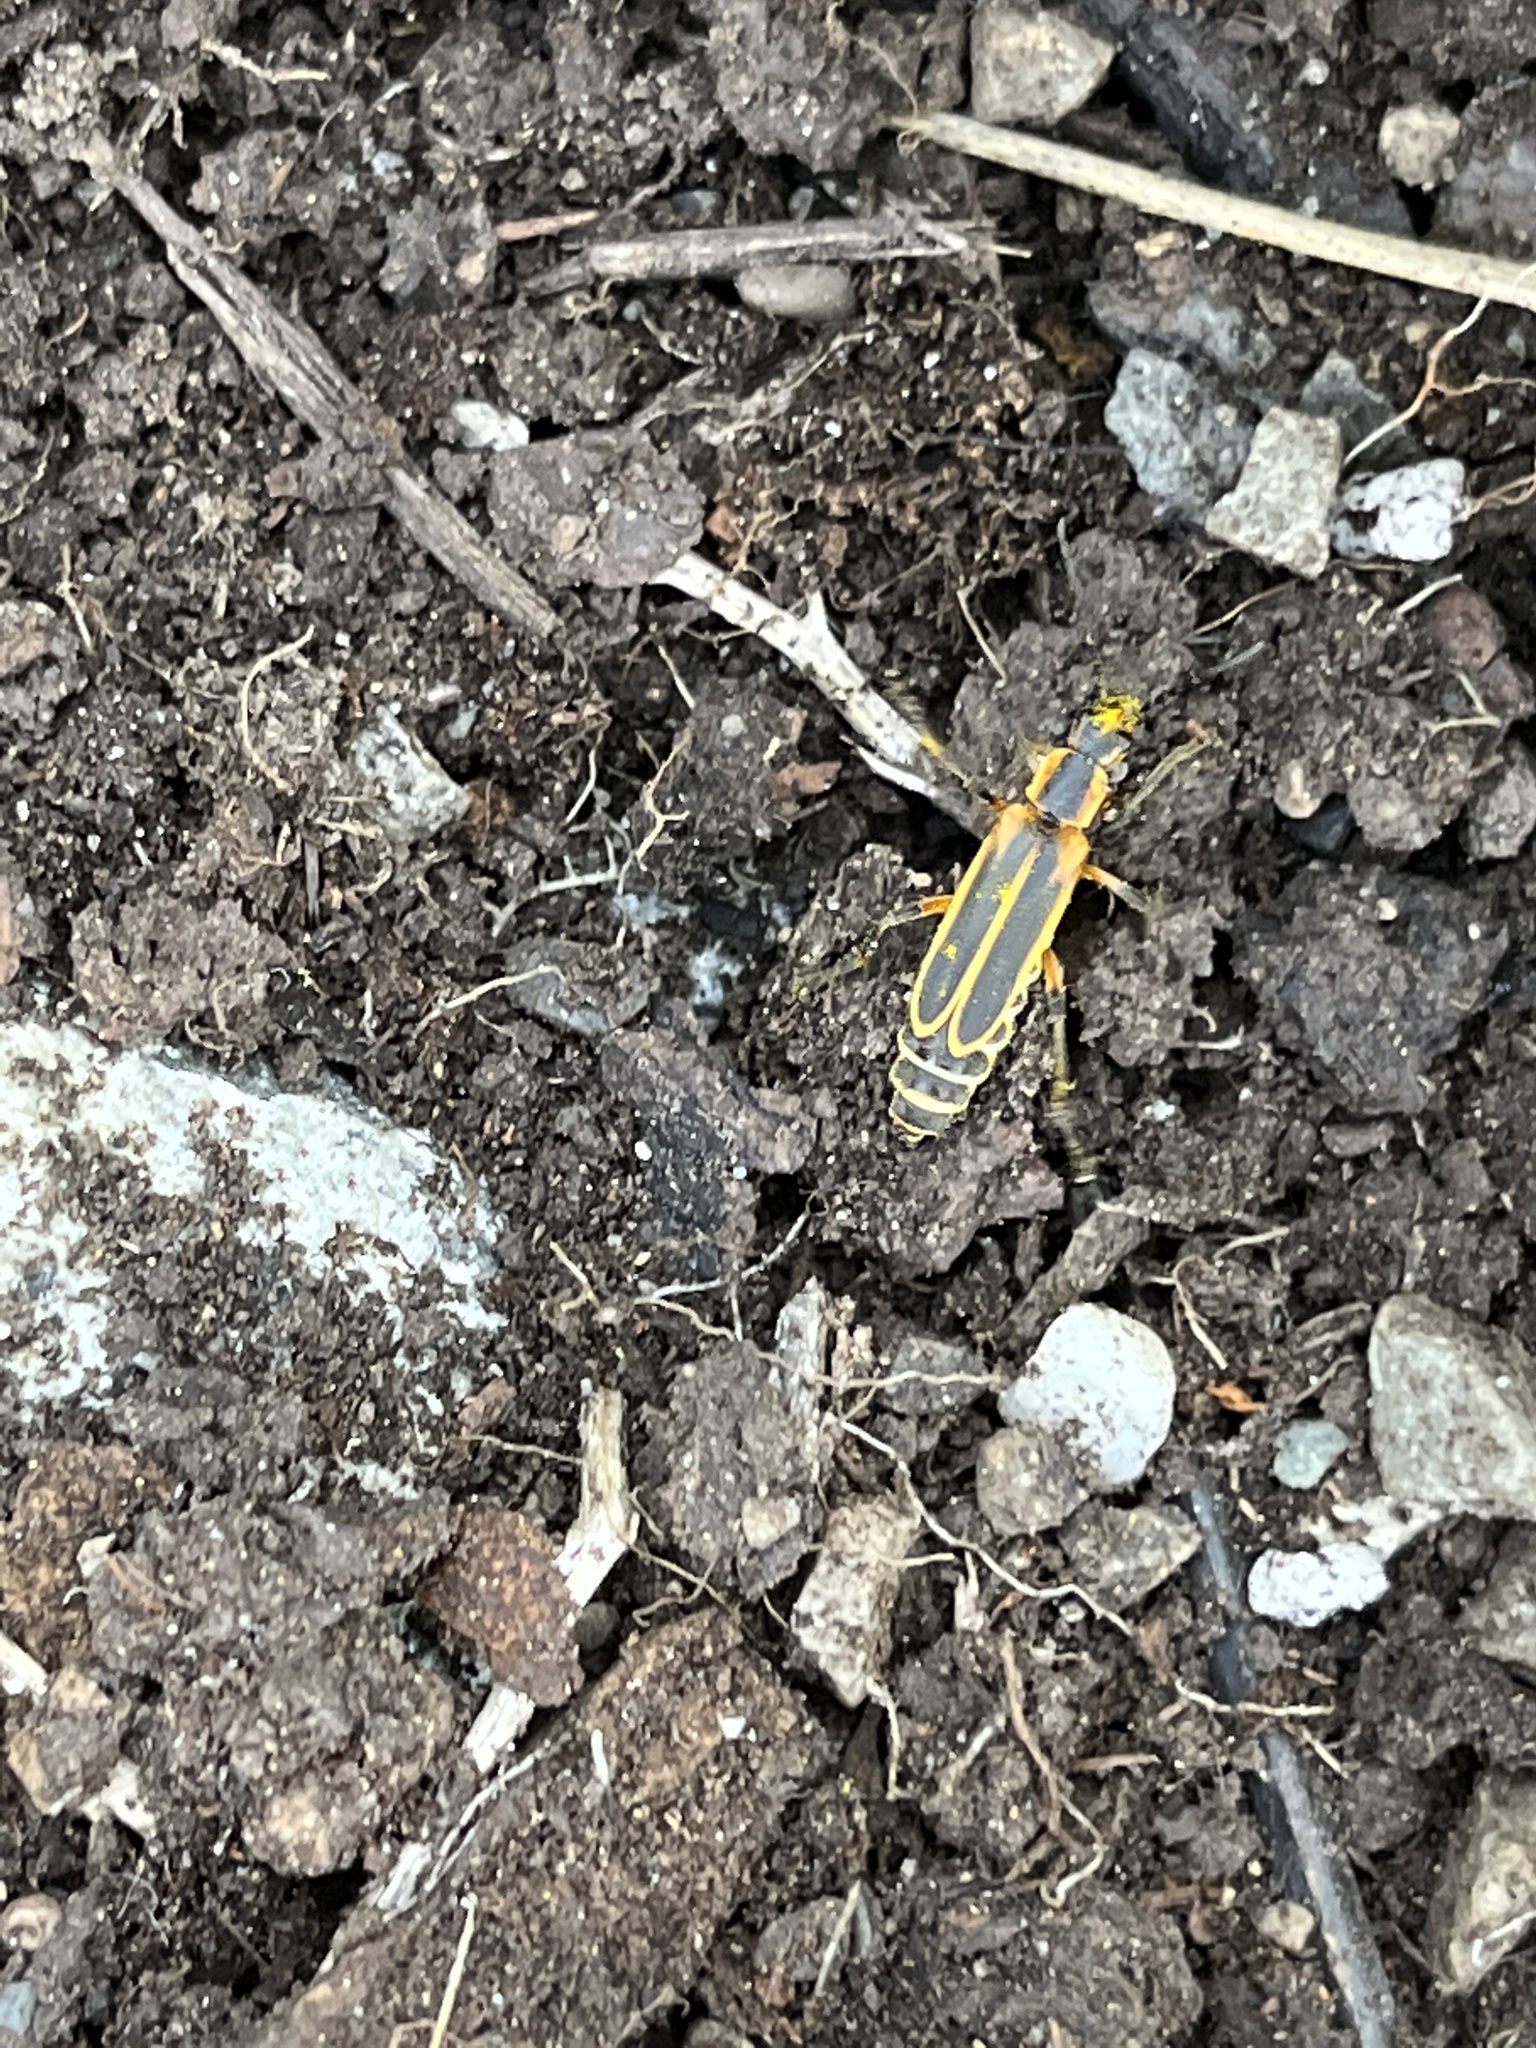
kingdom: Animalia
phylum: Arthropoda
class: Insecta
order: Coleoptera
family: Cantharidae
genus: Chauliognathus
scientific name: Chauliognathus marginatus
